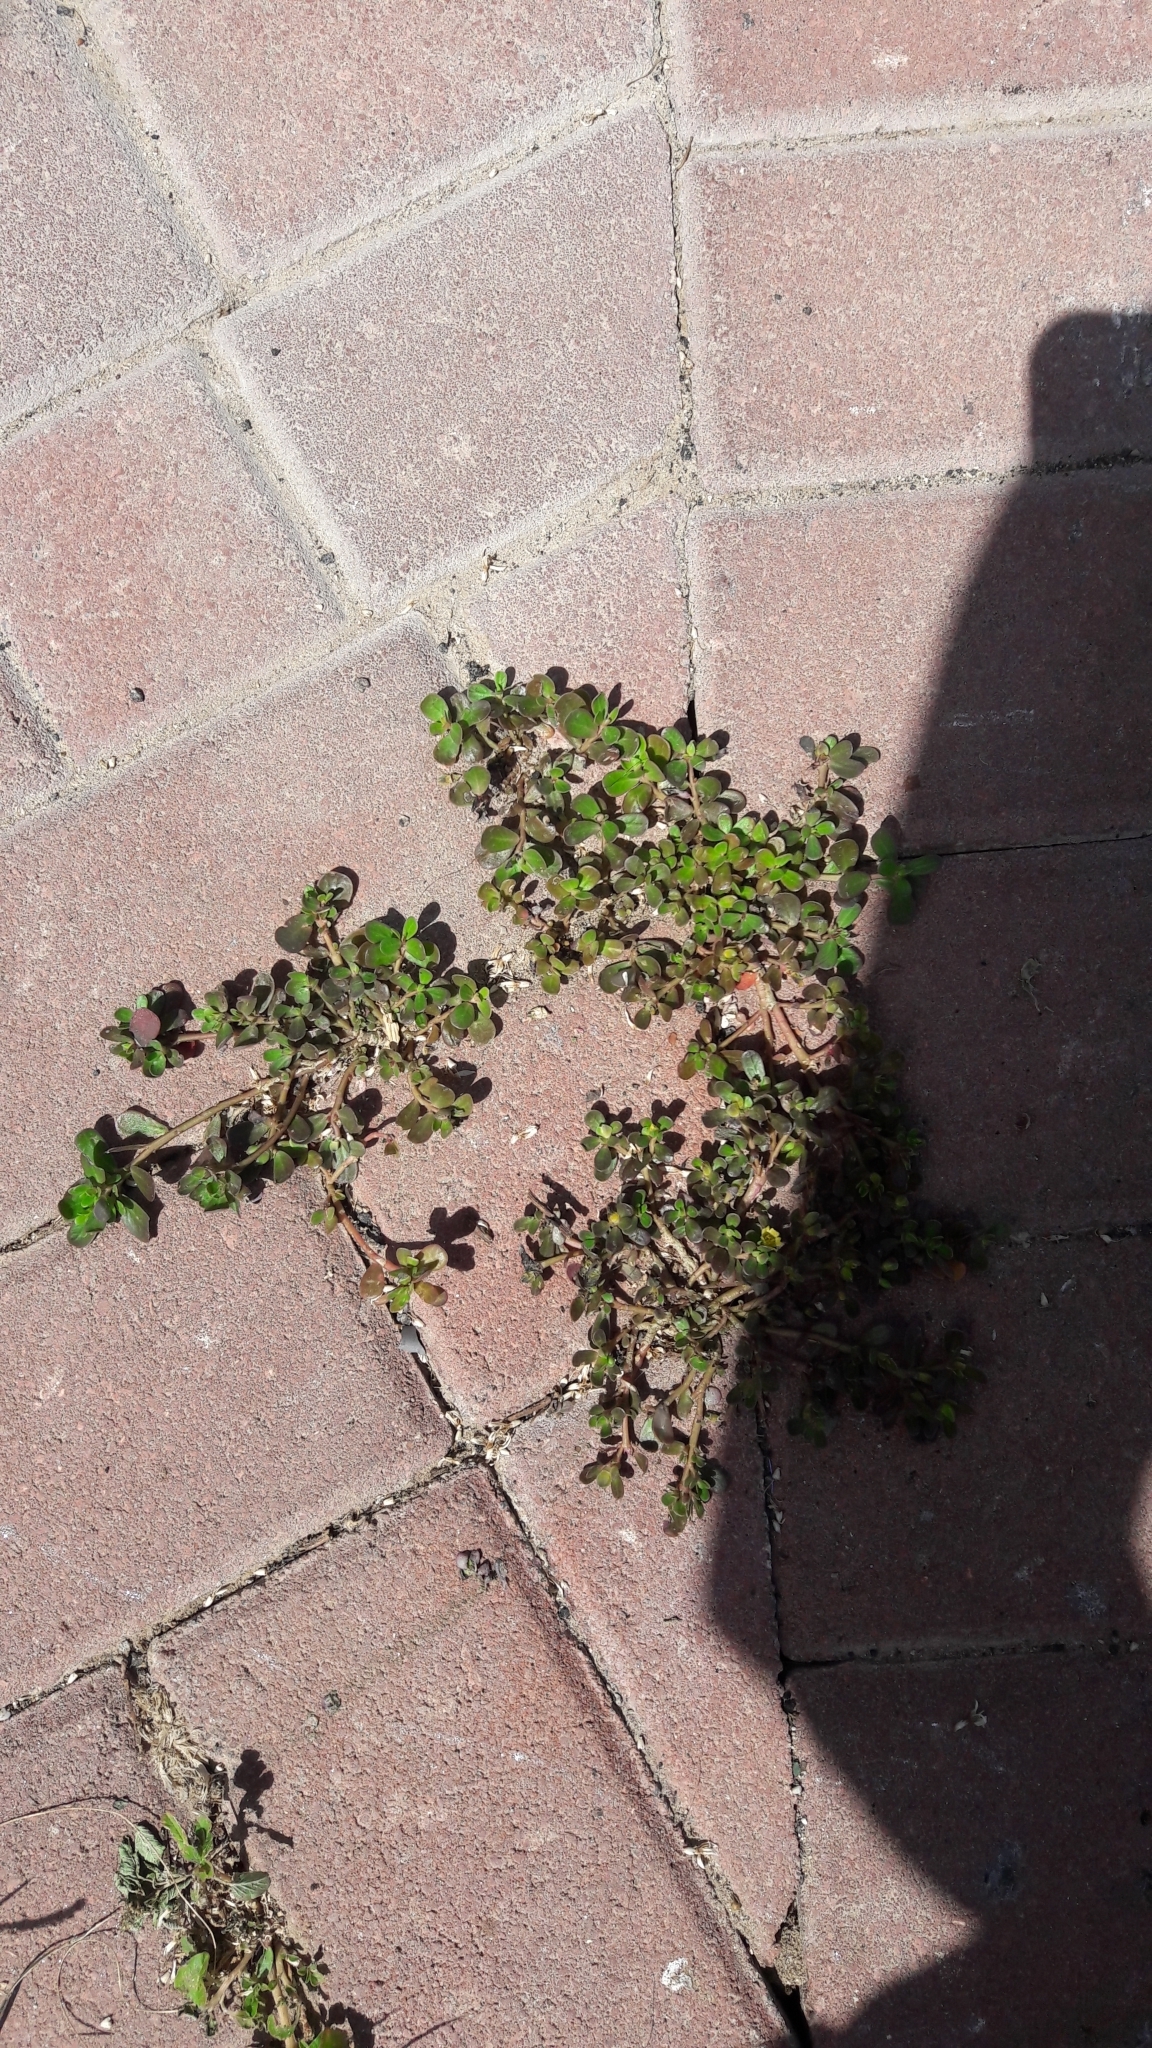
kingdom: Plantae
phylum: Tracheophyta
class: Magnoliopsida
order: Caryophyllales
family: Portulacaceae
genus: Portulaca
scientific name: Portulaca oleracea
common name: Common purslane
